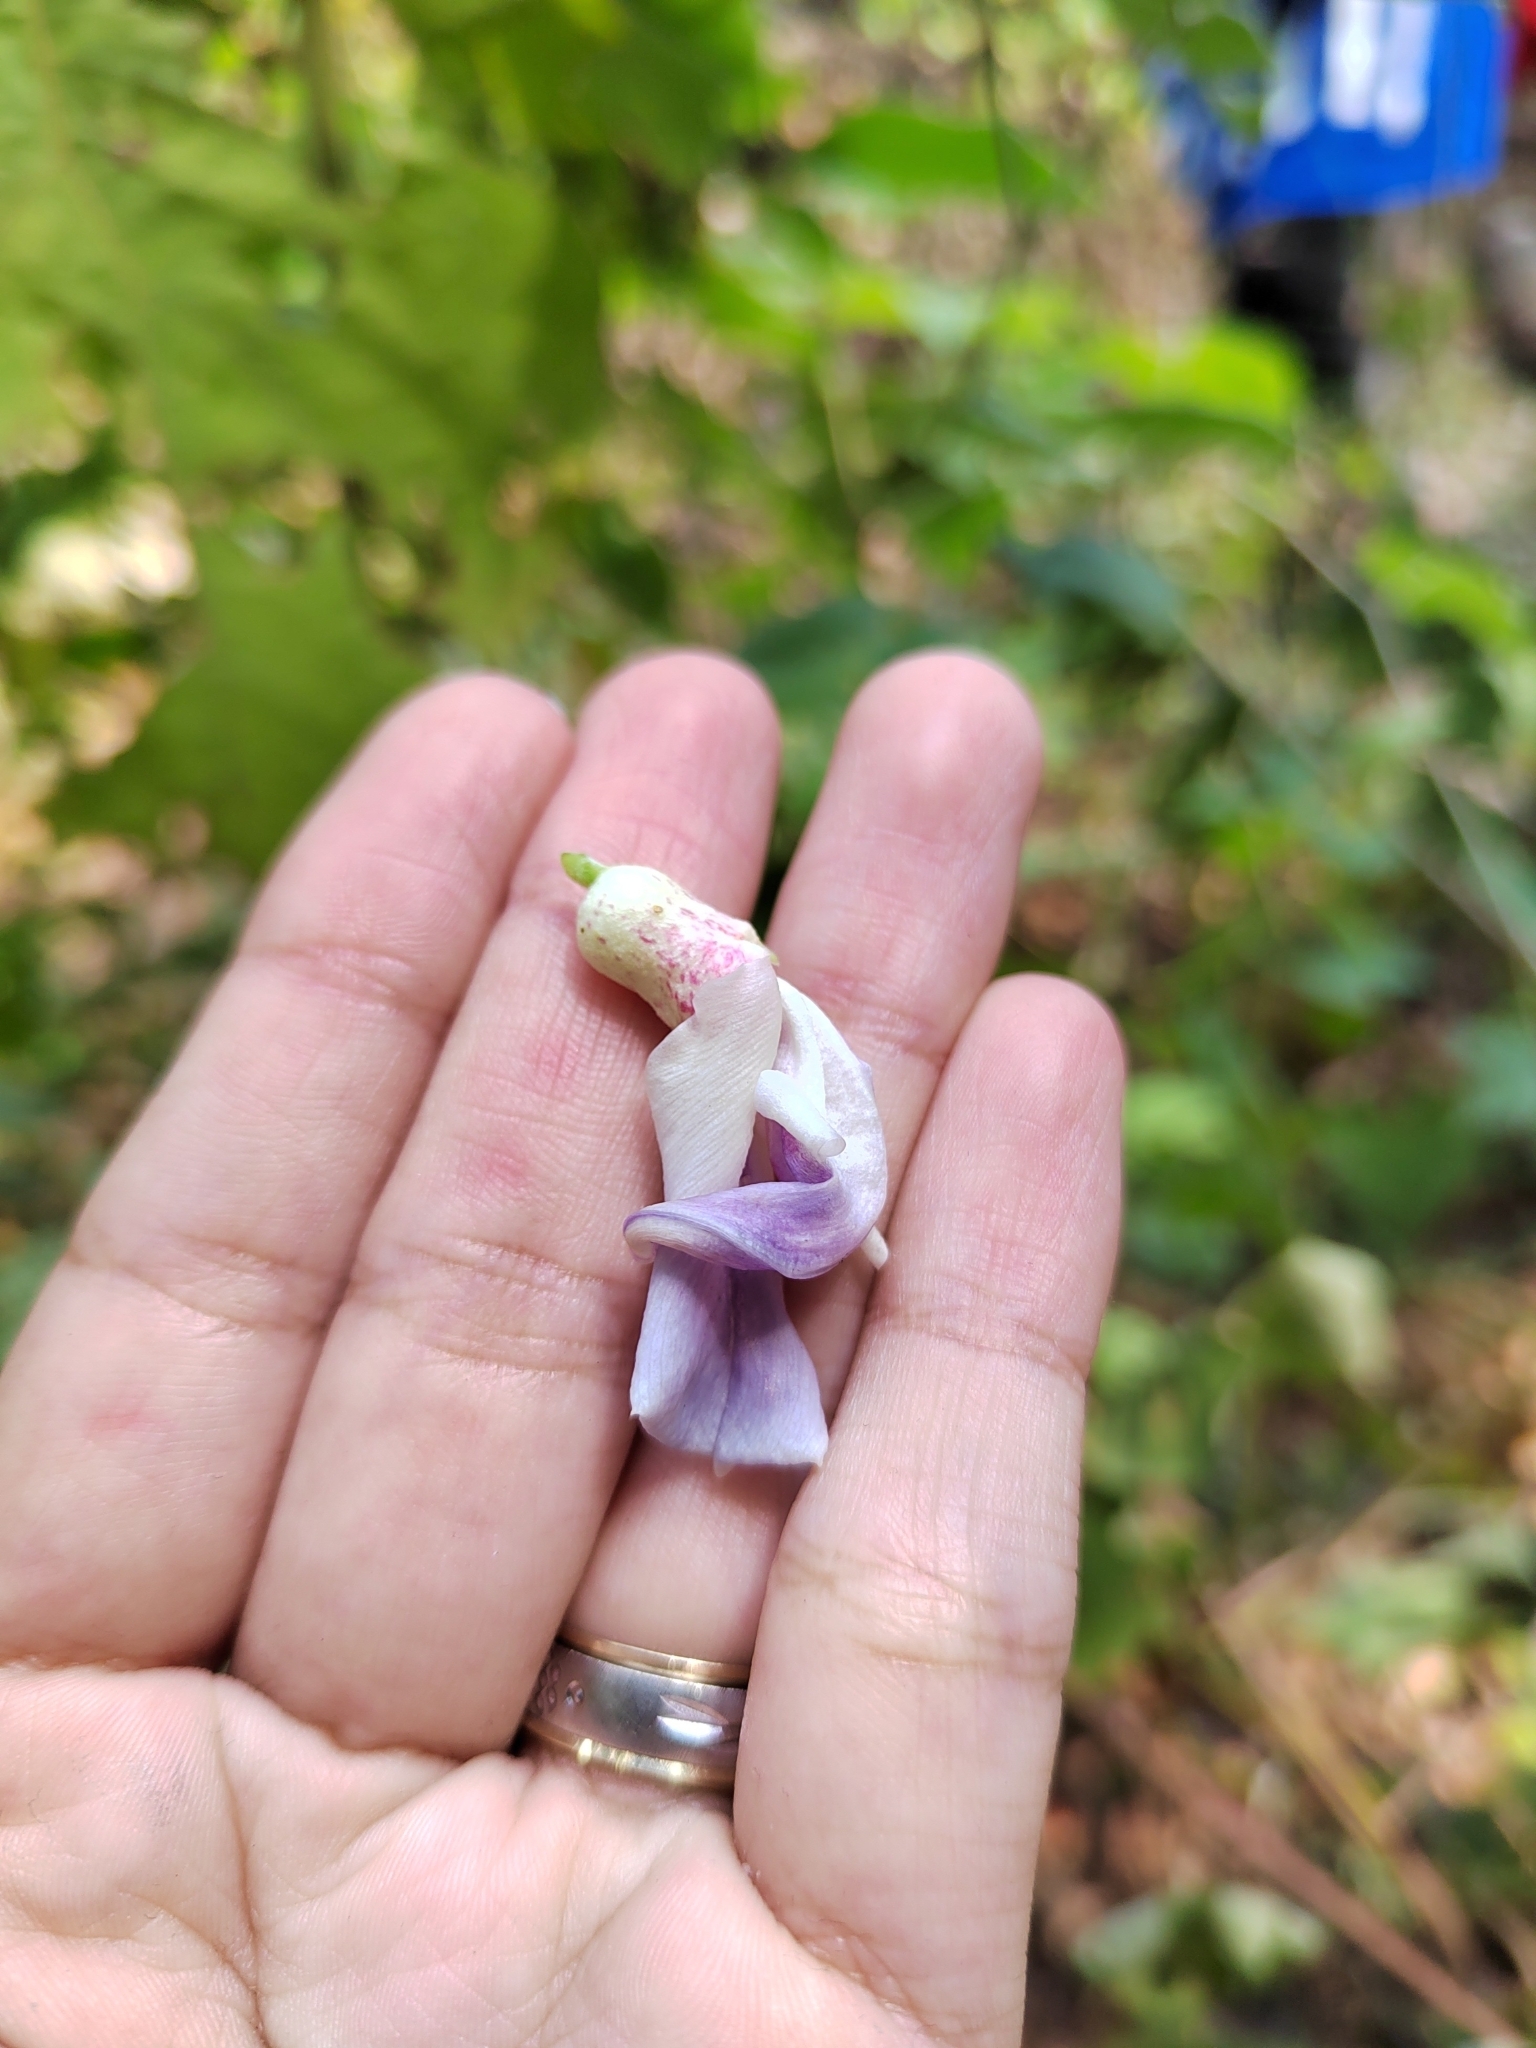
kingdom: Plantae
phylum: Tracheophyta
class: Magnoliopsida
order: Fabales
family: Fabaceae
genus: Canavalia
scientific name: Canavalia septentrionalis
